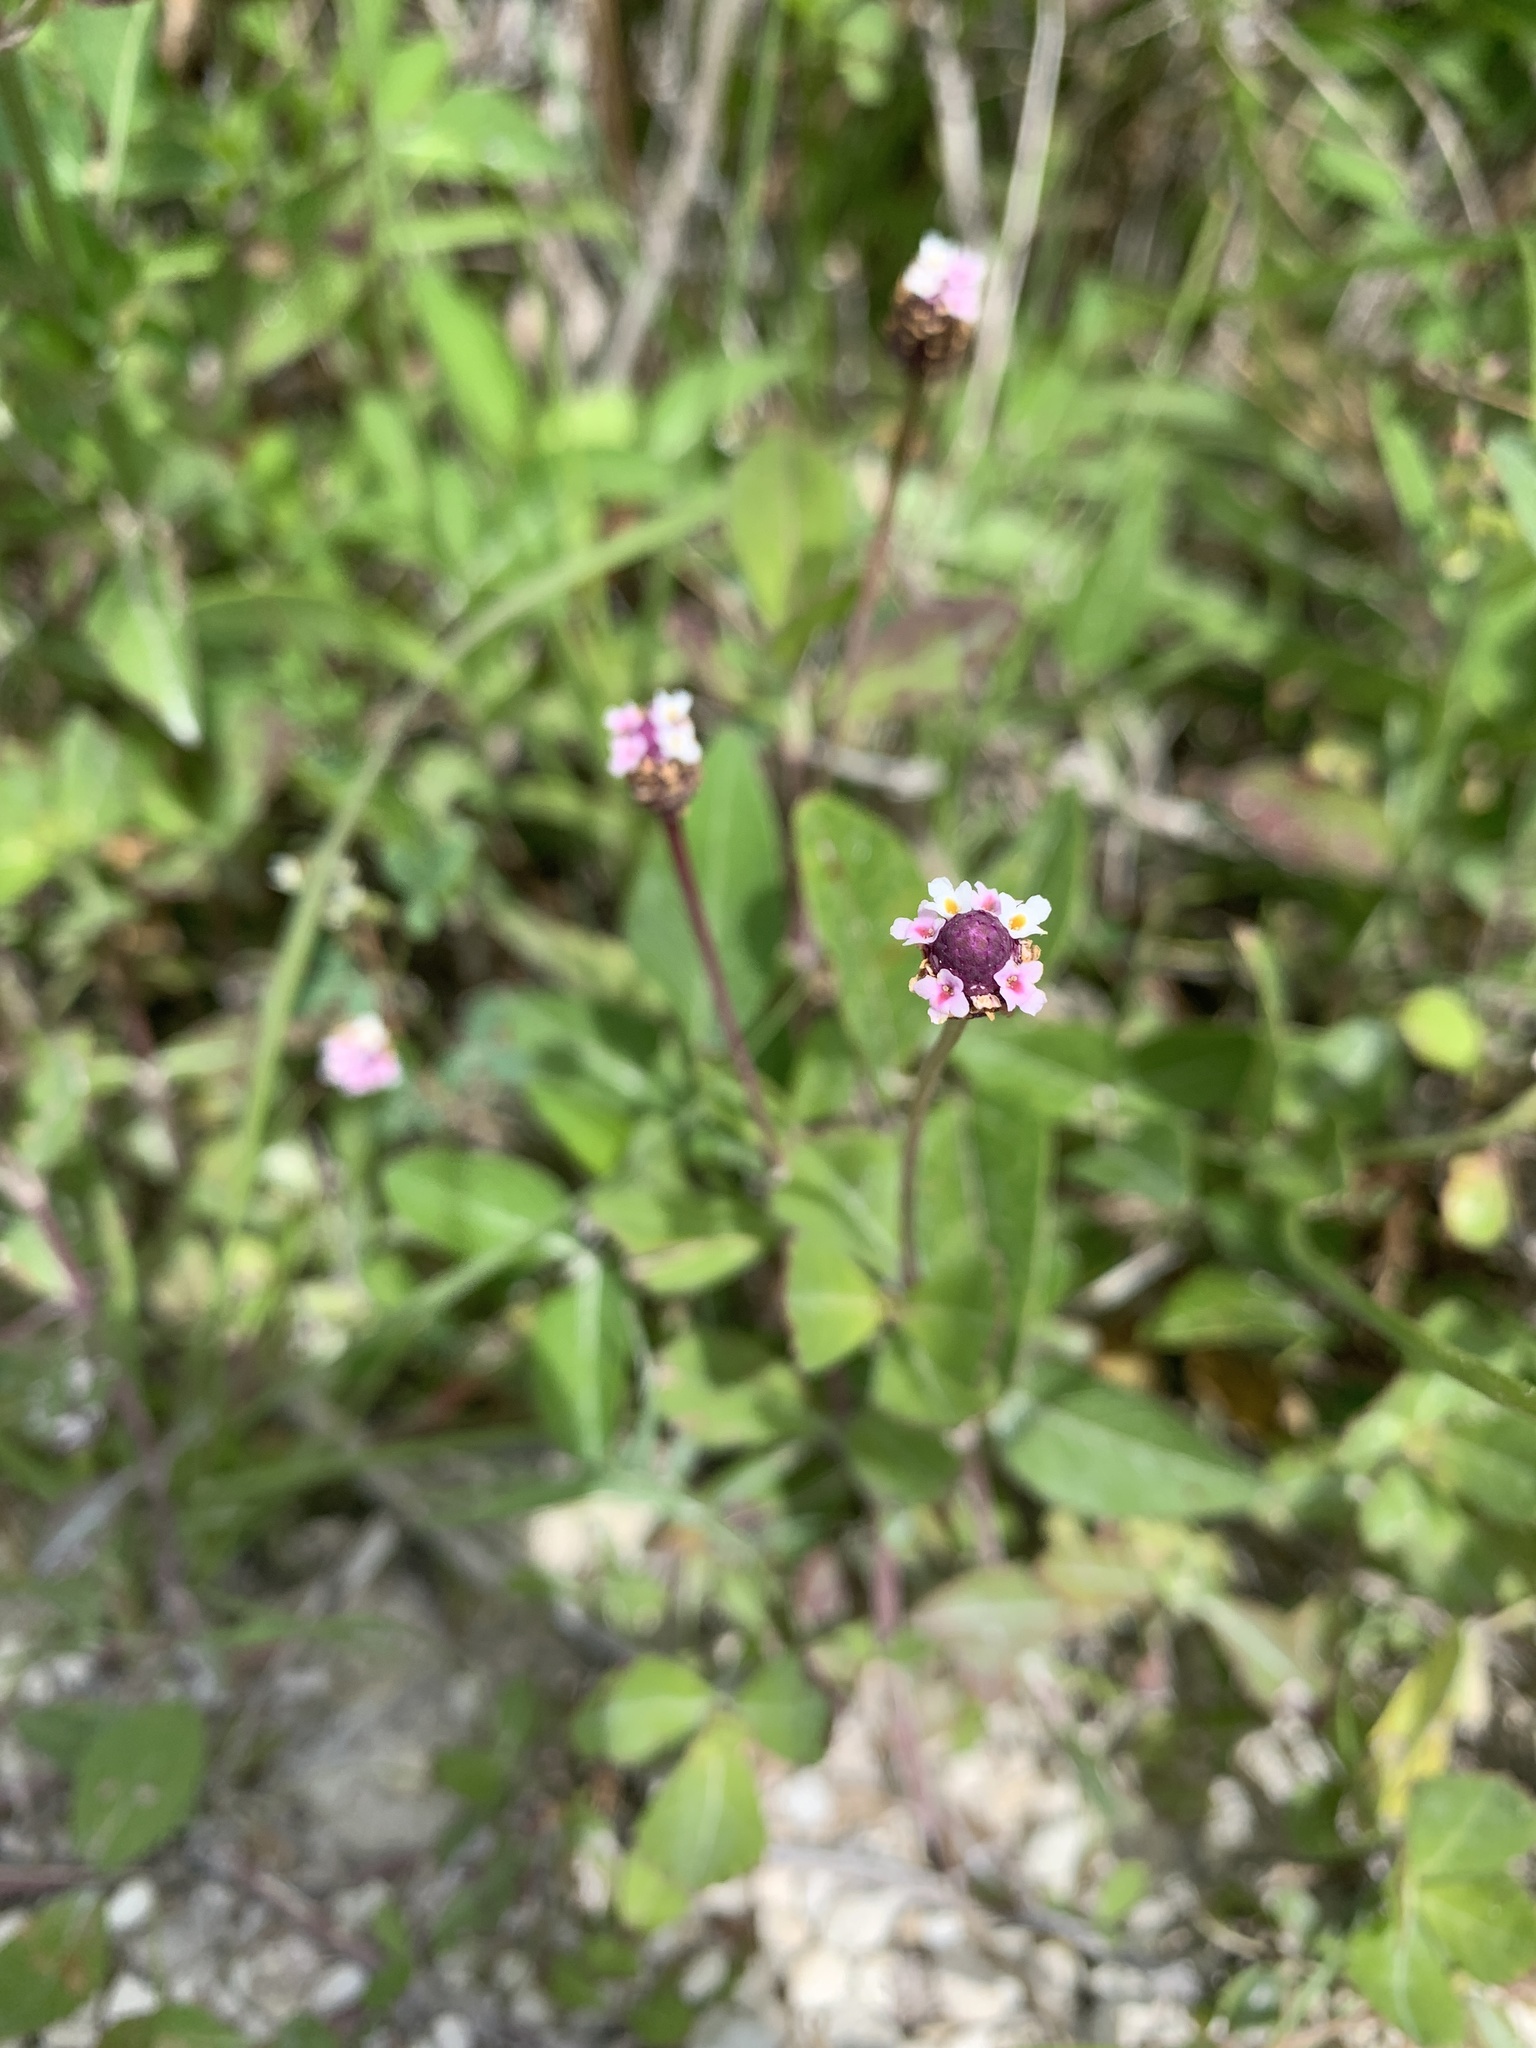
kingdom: Plantae
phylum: Tracheophyta
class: Magnoliopsida
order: Lamiales
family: Verbenaceae
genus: Phyla
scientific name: Phyla nodiflora
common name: Frogfruit
